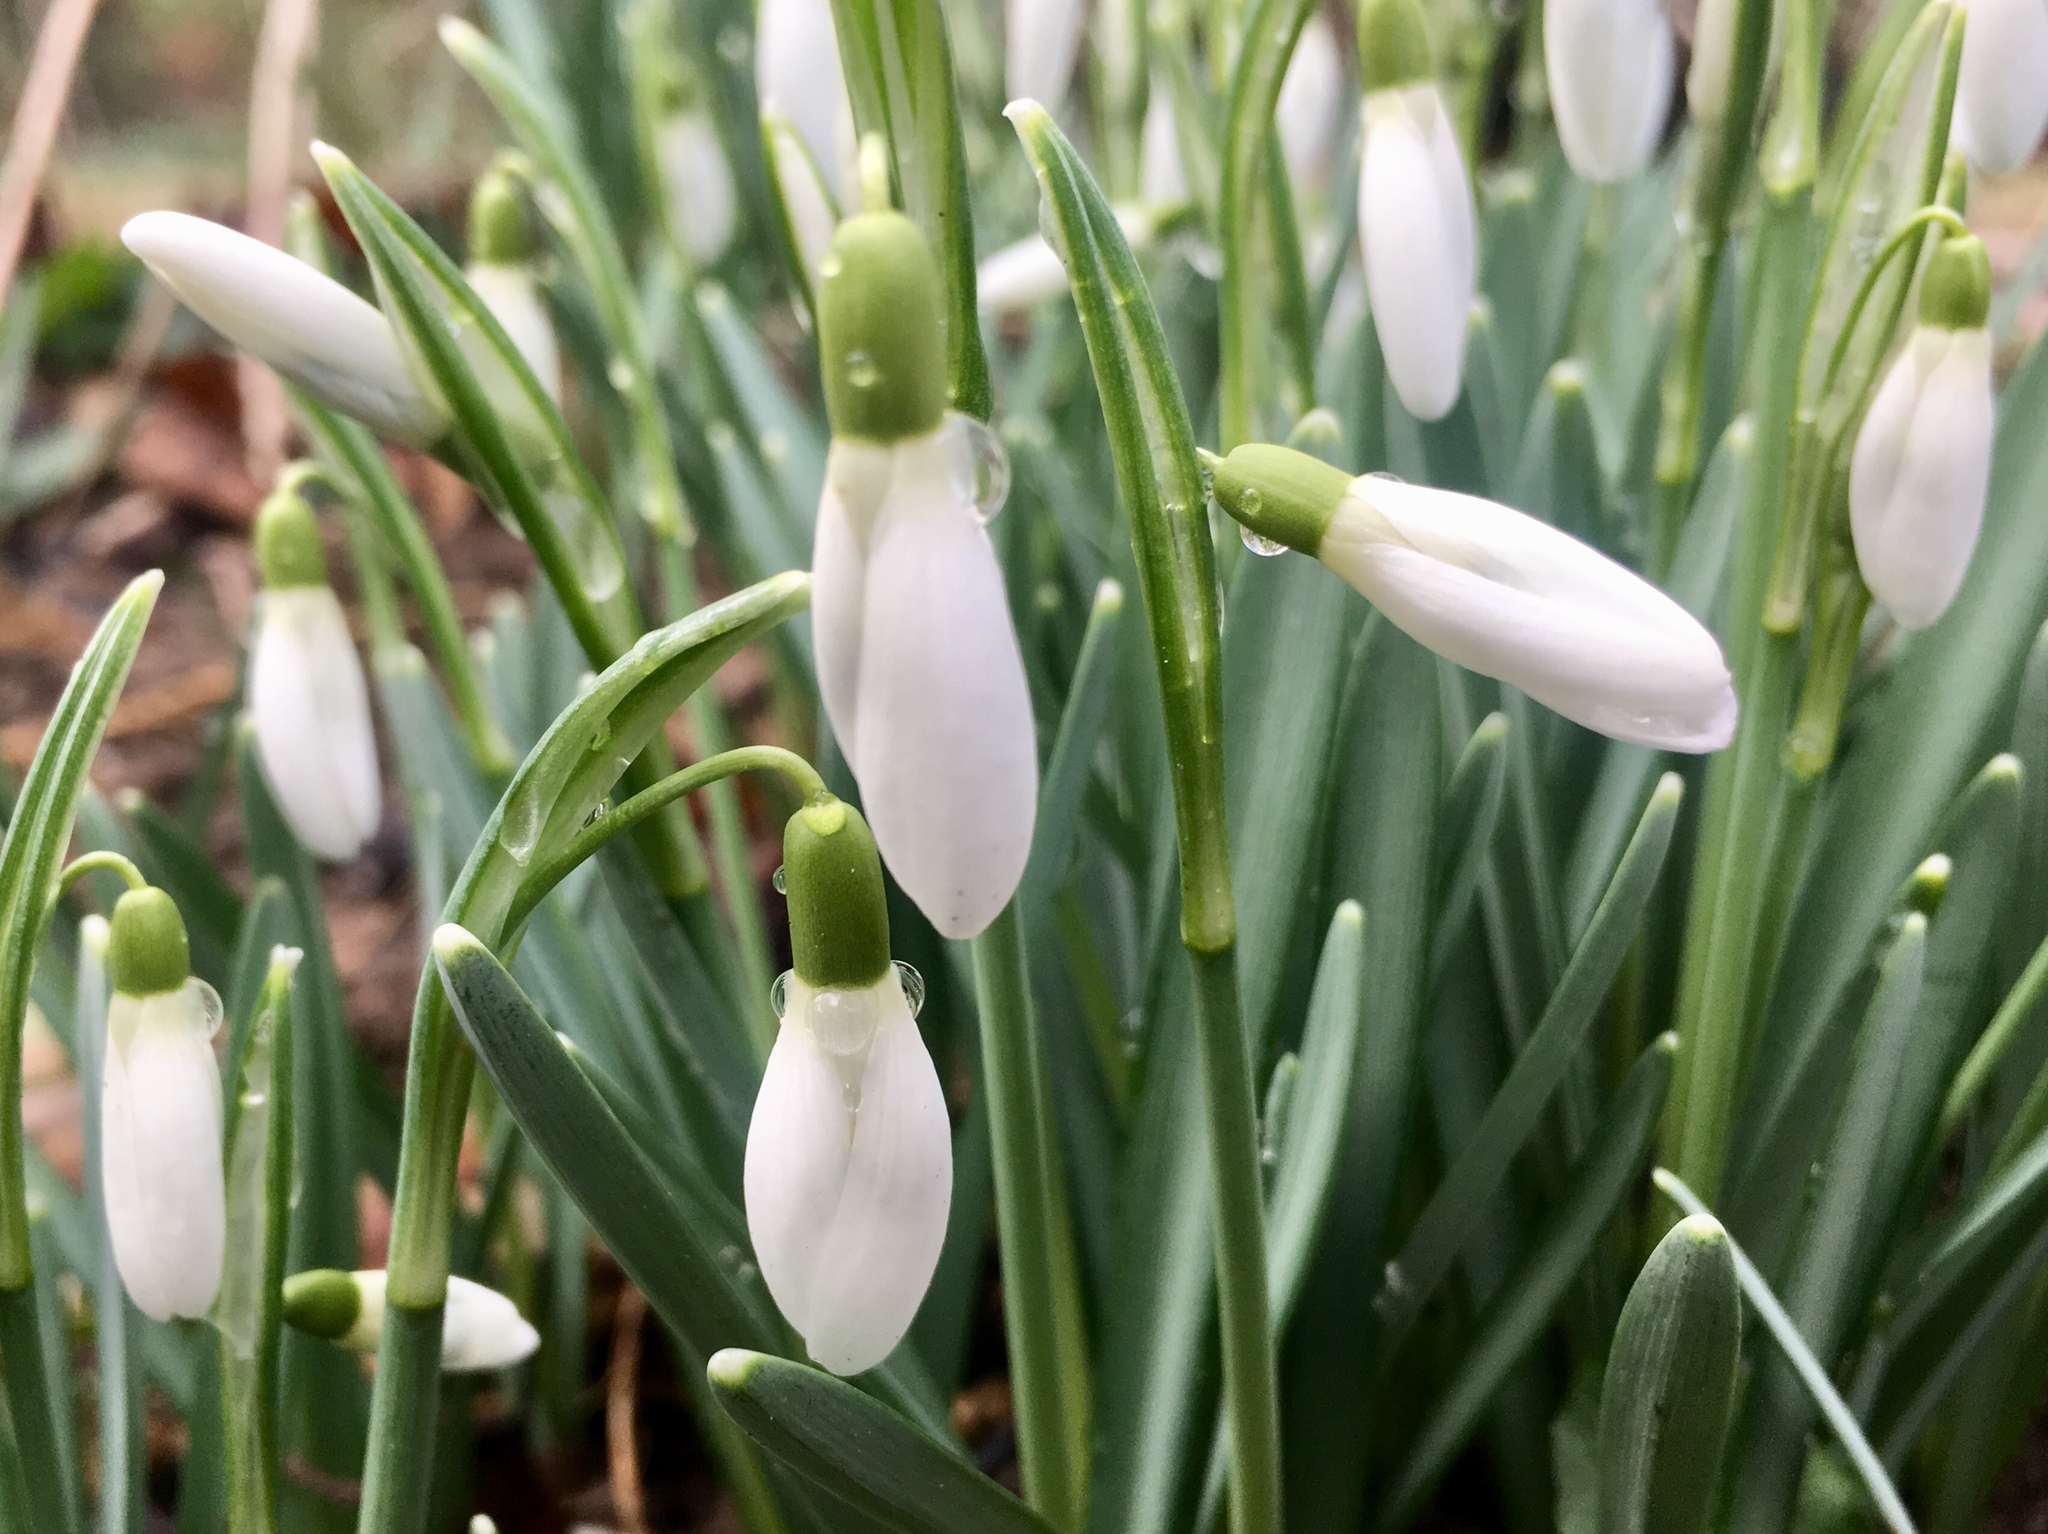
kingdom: Plantae
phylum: Tracheophyta
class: Liliopsida
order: Asparagales
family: Amaryllidaceae
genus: Galanthus
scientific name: Galanthus nivalis
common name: Snowdrop
